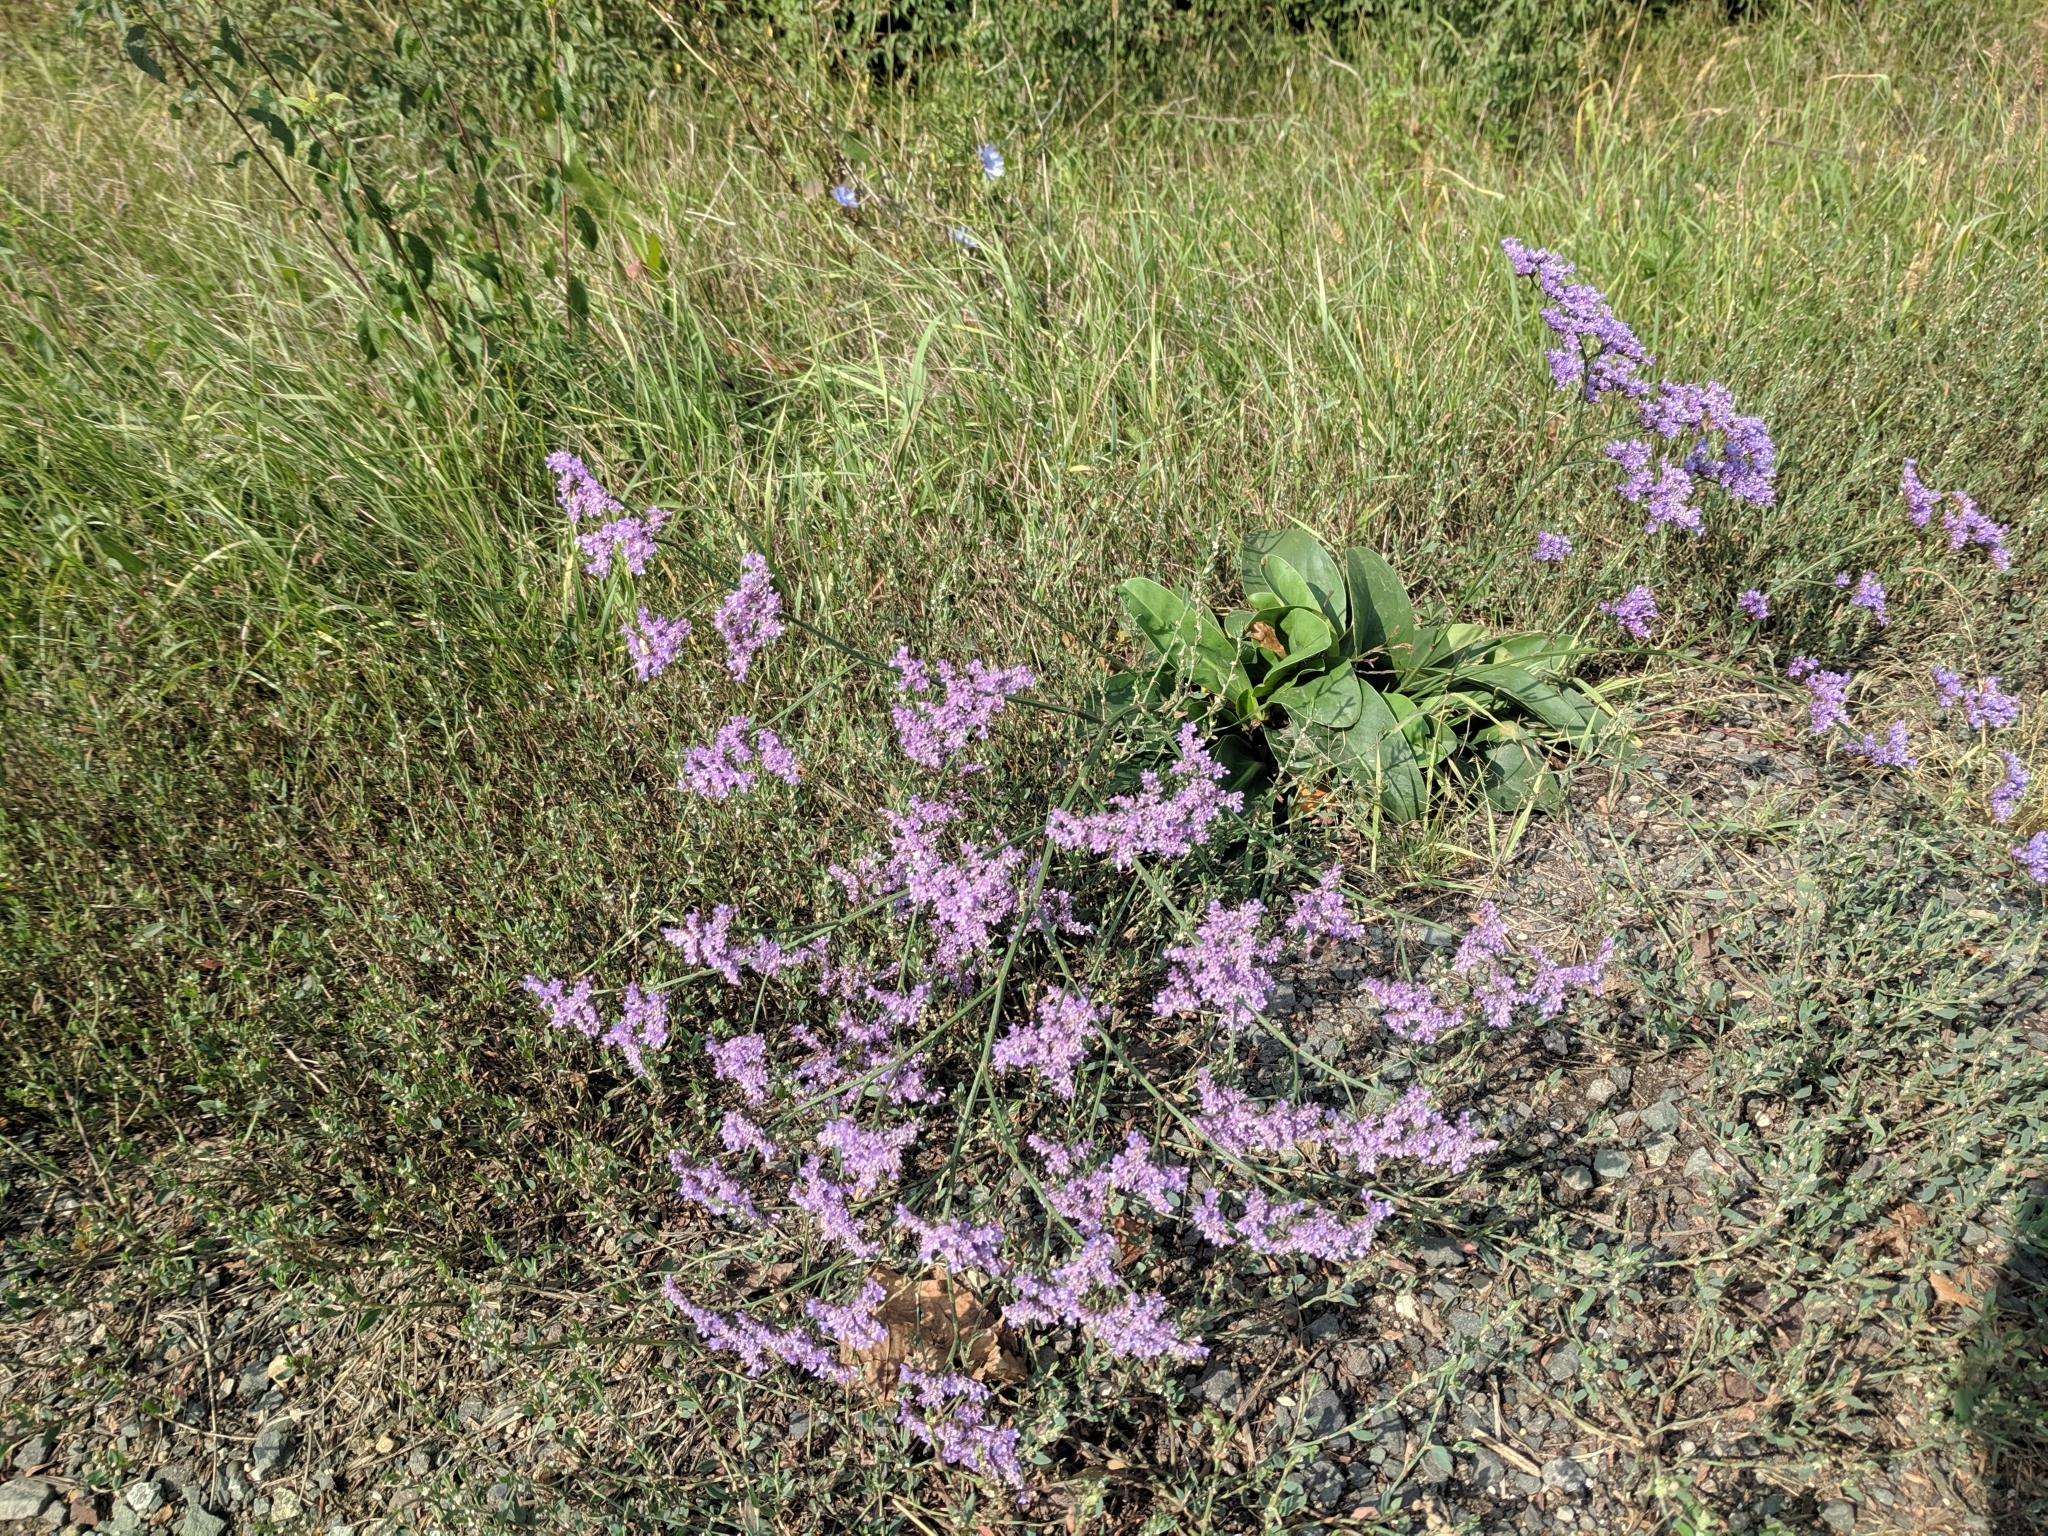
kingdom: Plantae
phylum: Tracheophyta
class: Magnoliopsida
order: Caryophyllales
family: Plumbaginaceae
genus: Limonium
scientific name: Limonium gmelini
